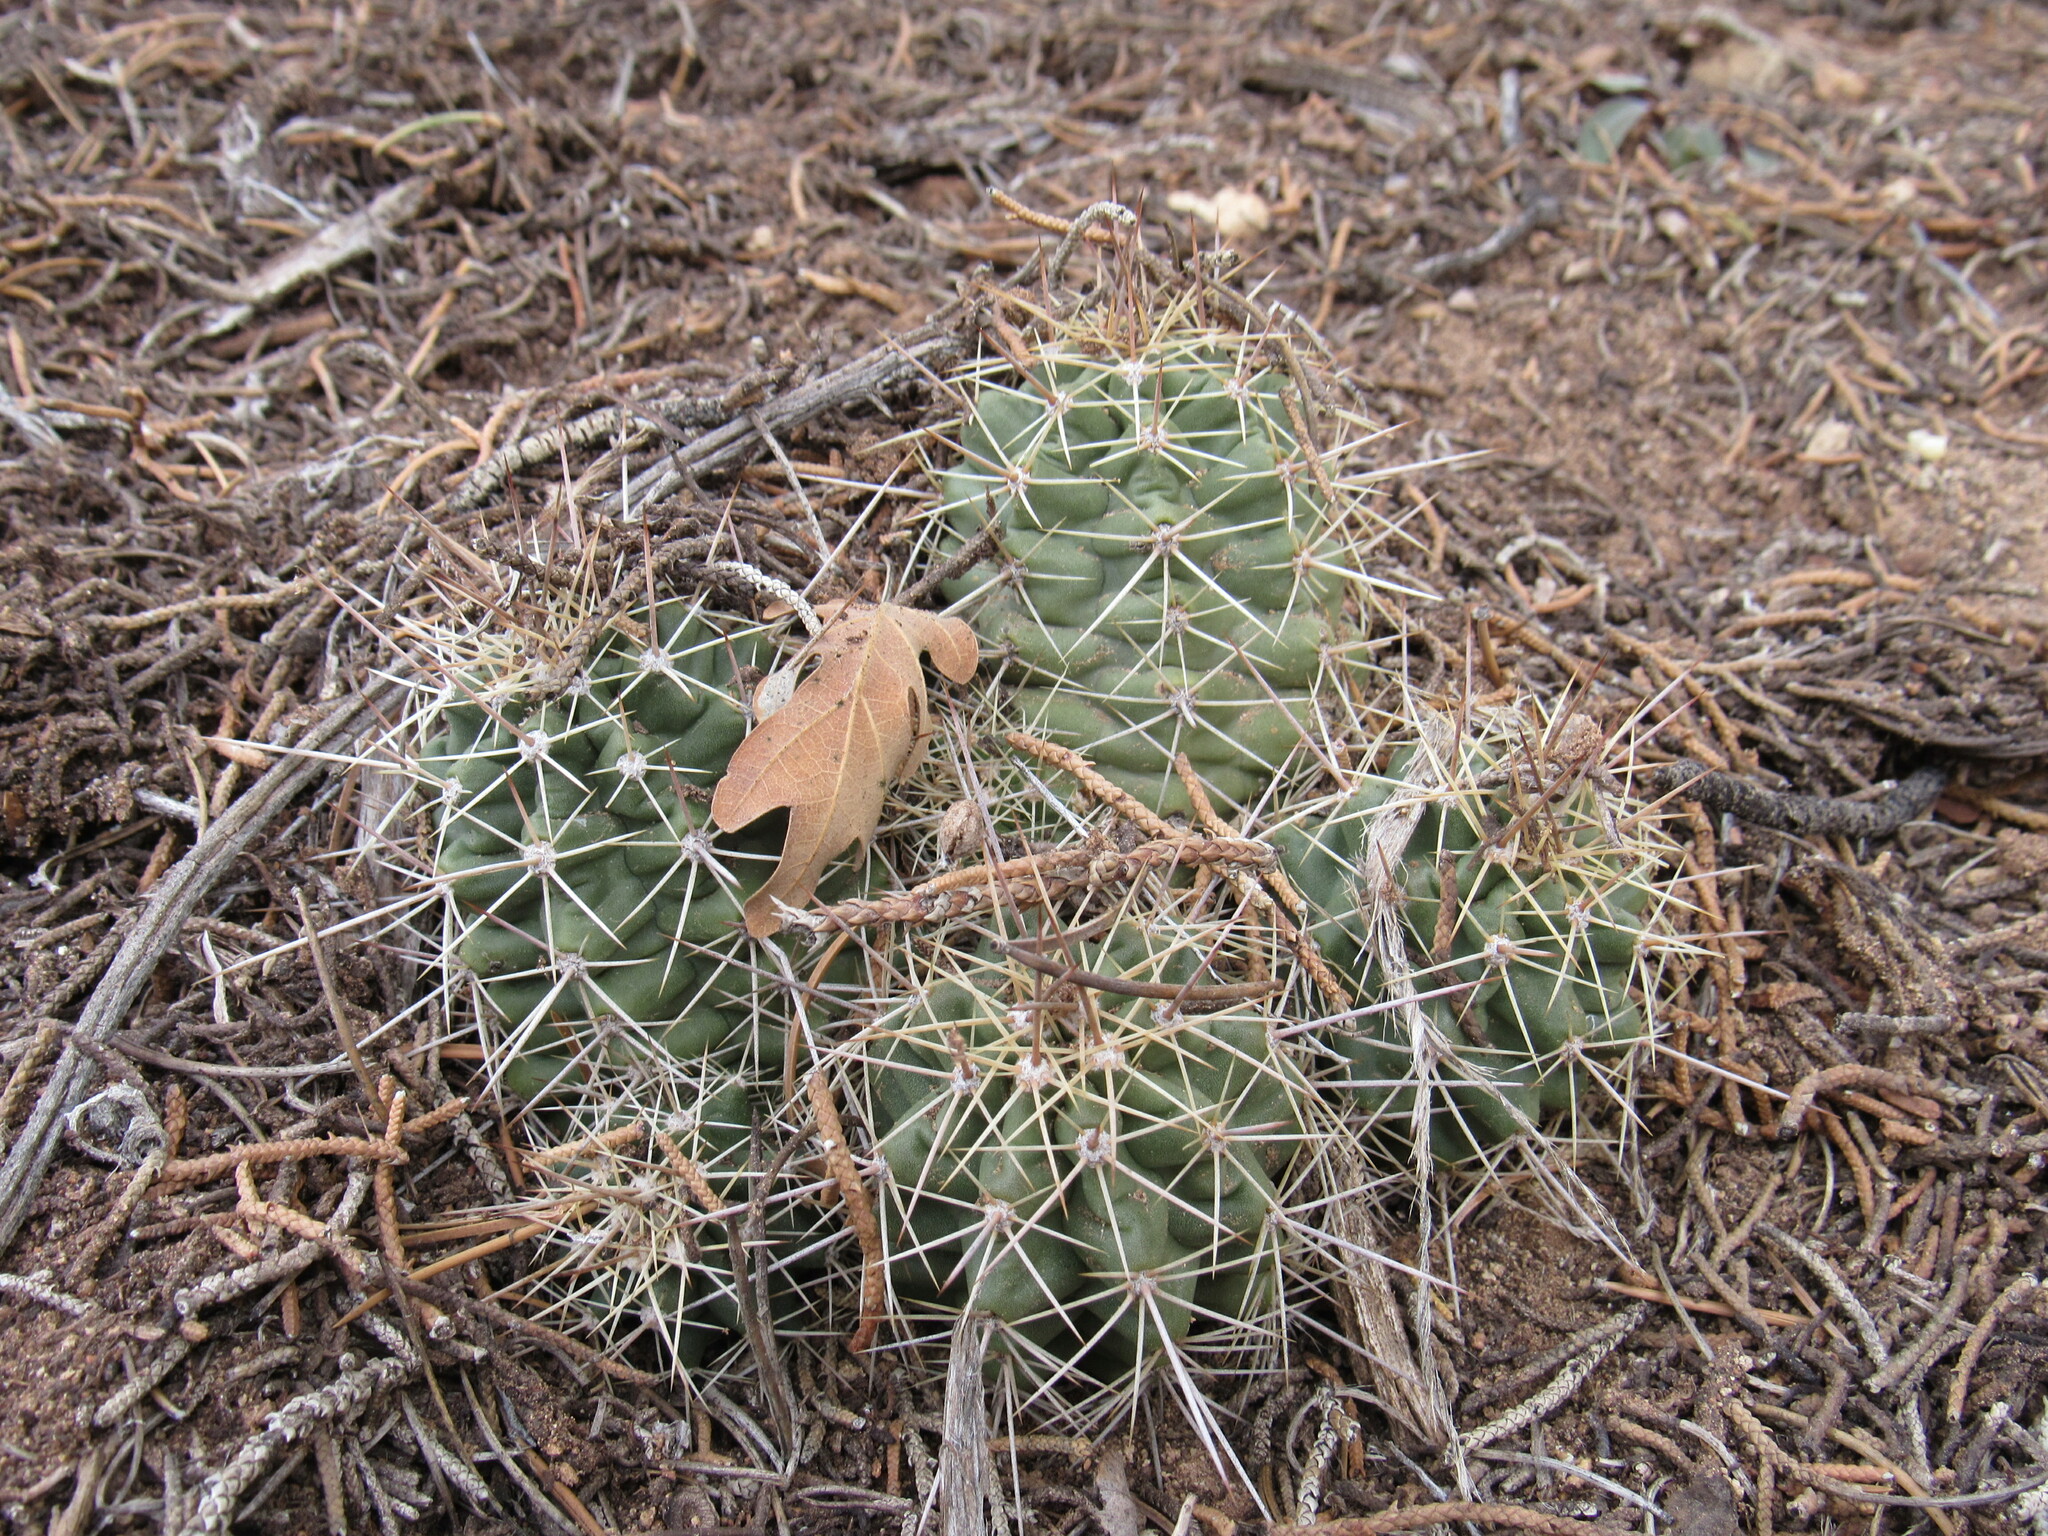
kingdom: Plantae
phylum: Tracheophyta
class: Magnoliopsida
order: Caryophyllales
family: Cactaceae
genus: Echinocereus
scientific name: Echinocereus triglochidiatus
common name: Claretcup hedgehog
